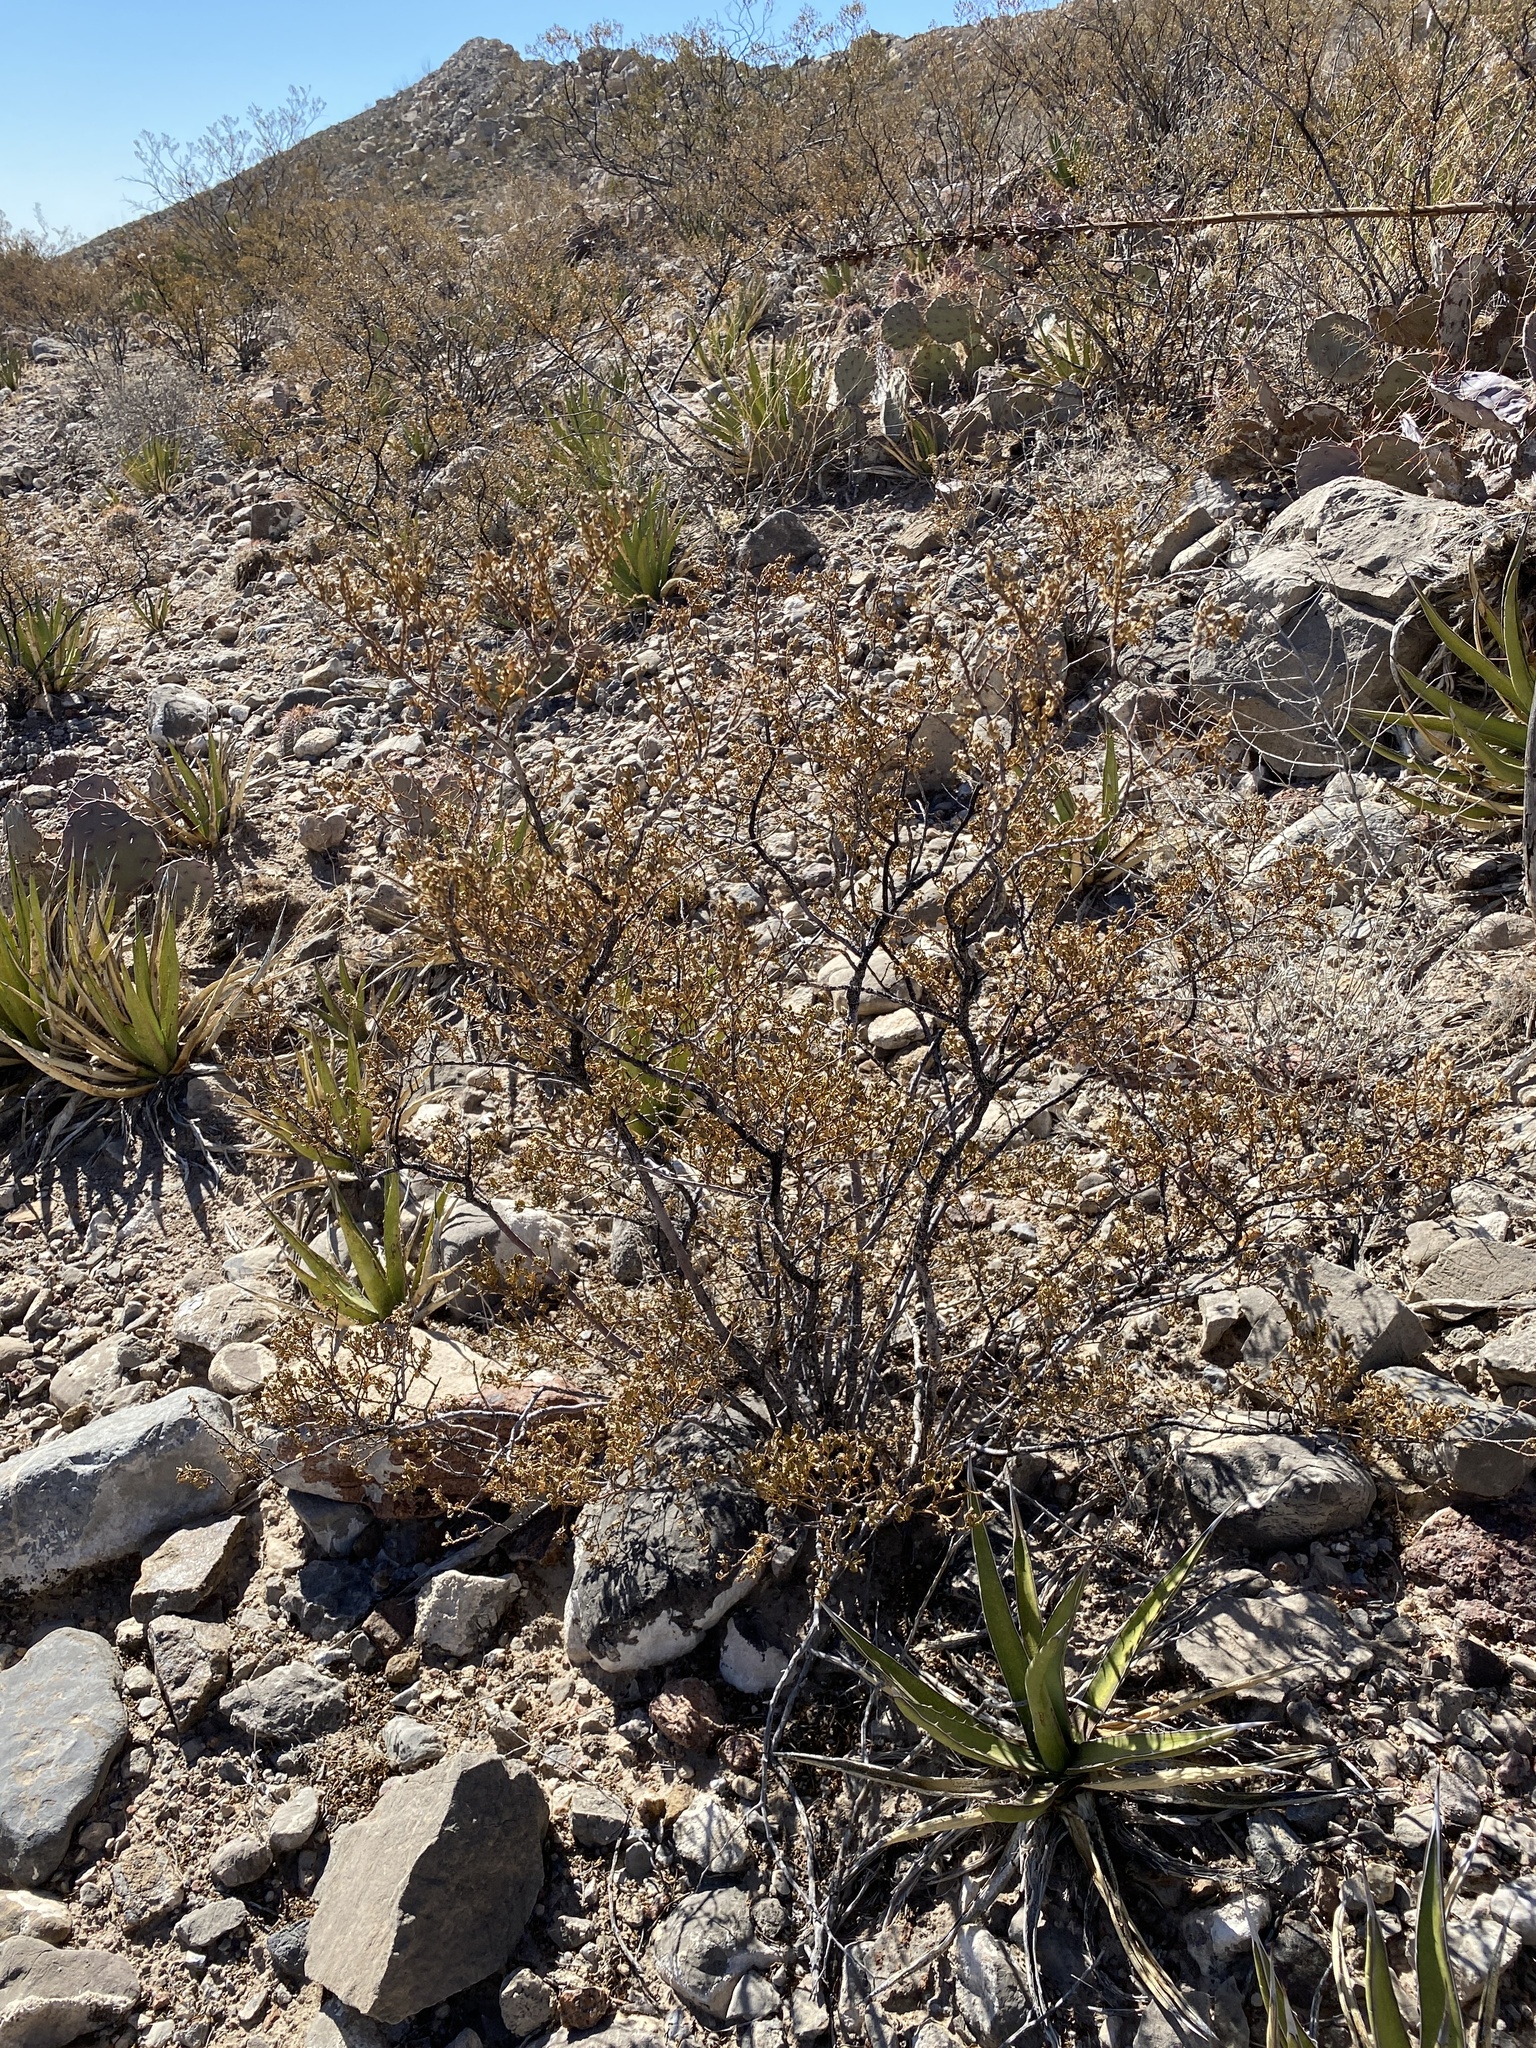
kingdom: Plantae
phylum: Tracheophyta
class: Magnoliopsida
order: Zygophyllales
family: Zygophyllaceae
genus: Larrea
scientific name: Larrea tridentata
